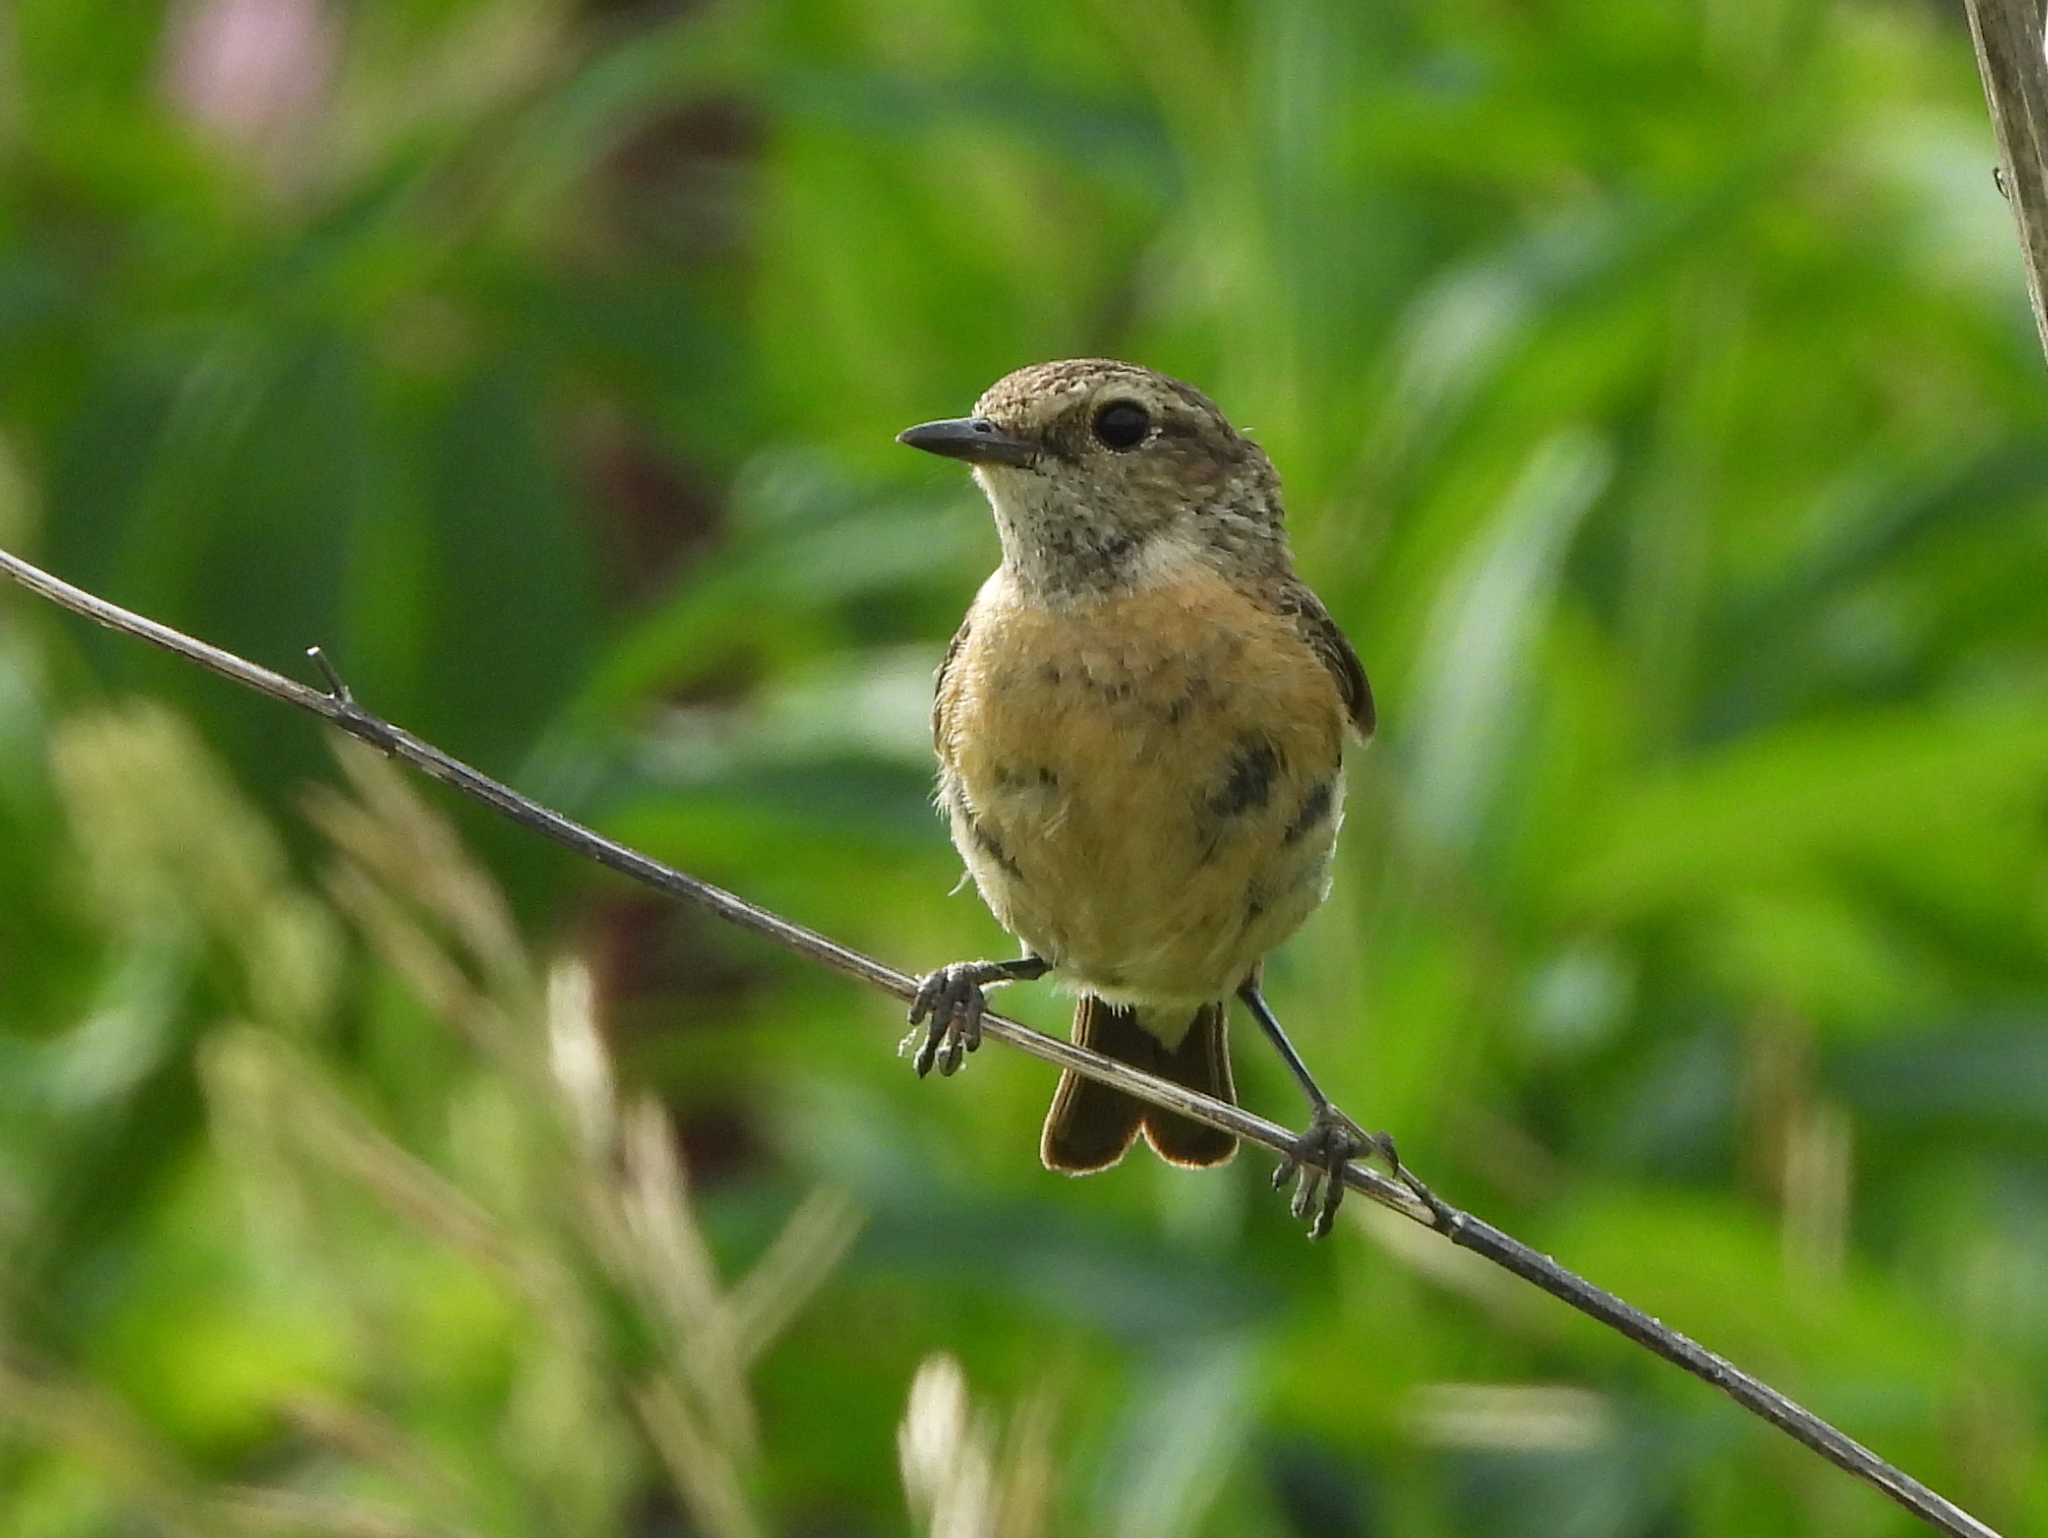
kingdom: Animalia
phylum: Chordata
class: Aves
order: Passeriformes
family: Muscicapidae
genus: Saxicola
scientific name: Saxicola maurus
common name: Siberian stonechat
